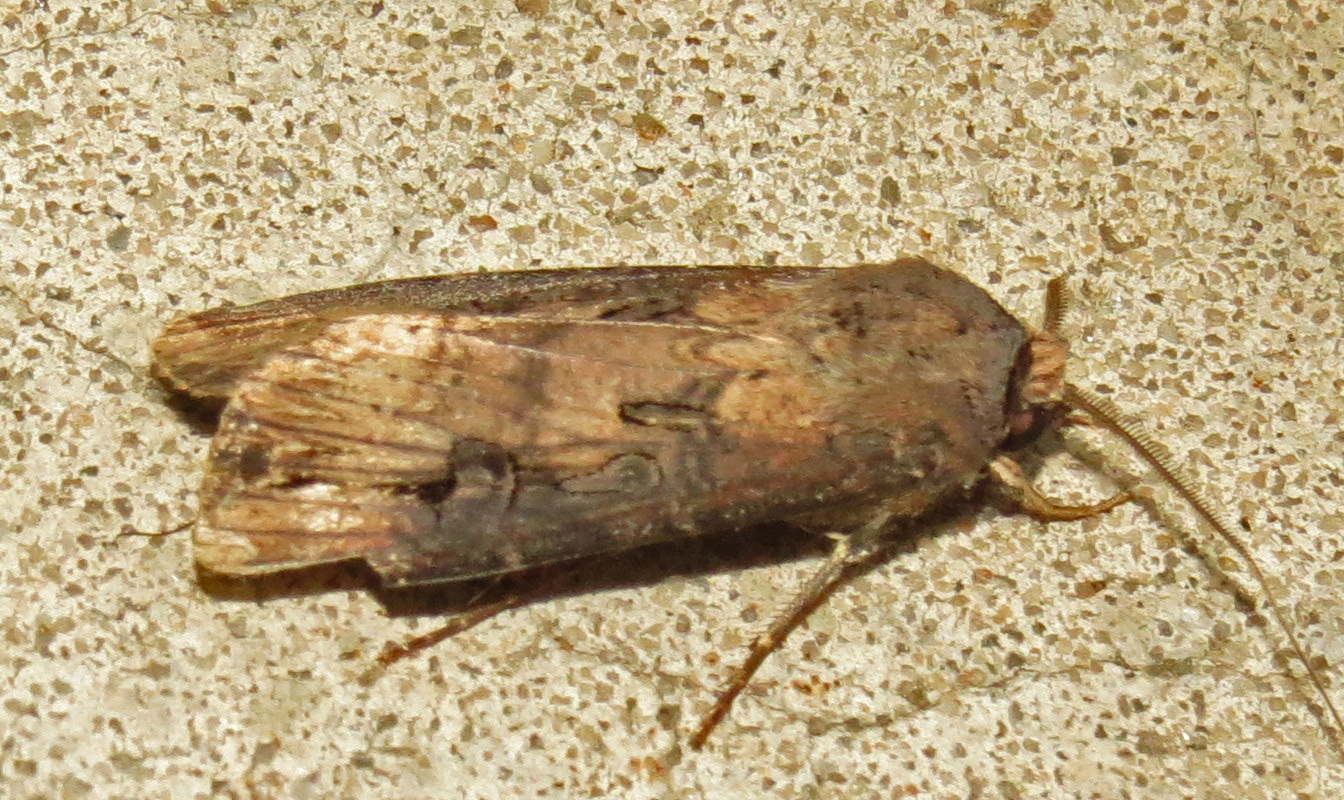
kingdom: Animalia
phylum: Arthropoda
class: Insecta
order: Lepidoptera
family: Noctuidae
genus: Agrotis
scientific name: Agrotis ipsilon
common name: Dark sword-grass
